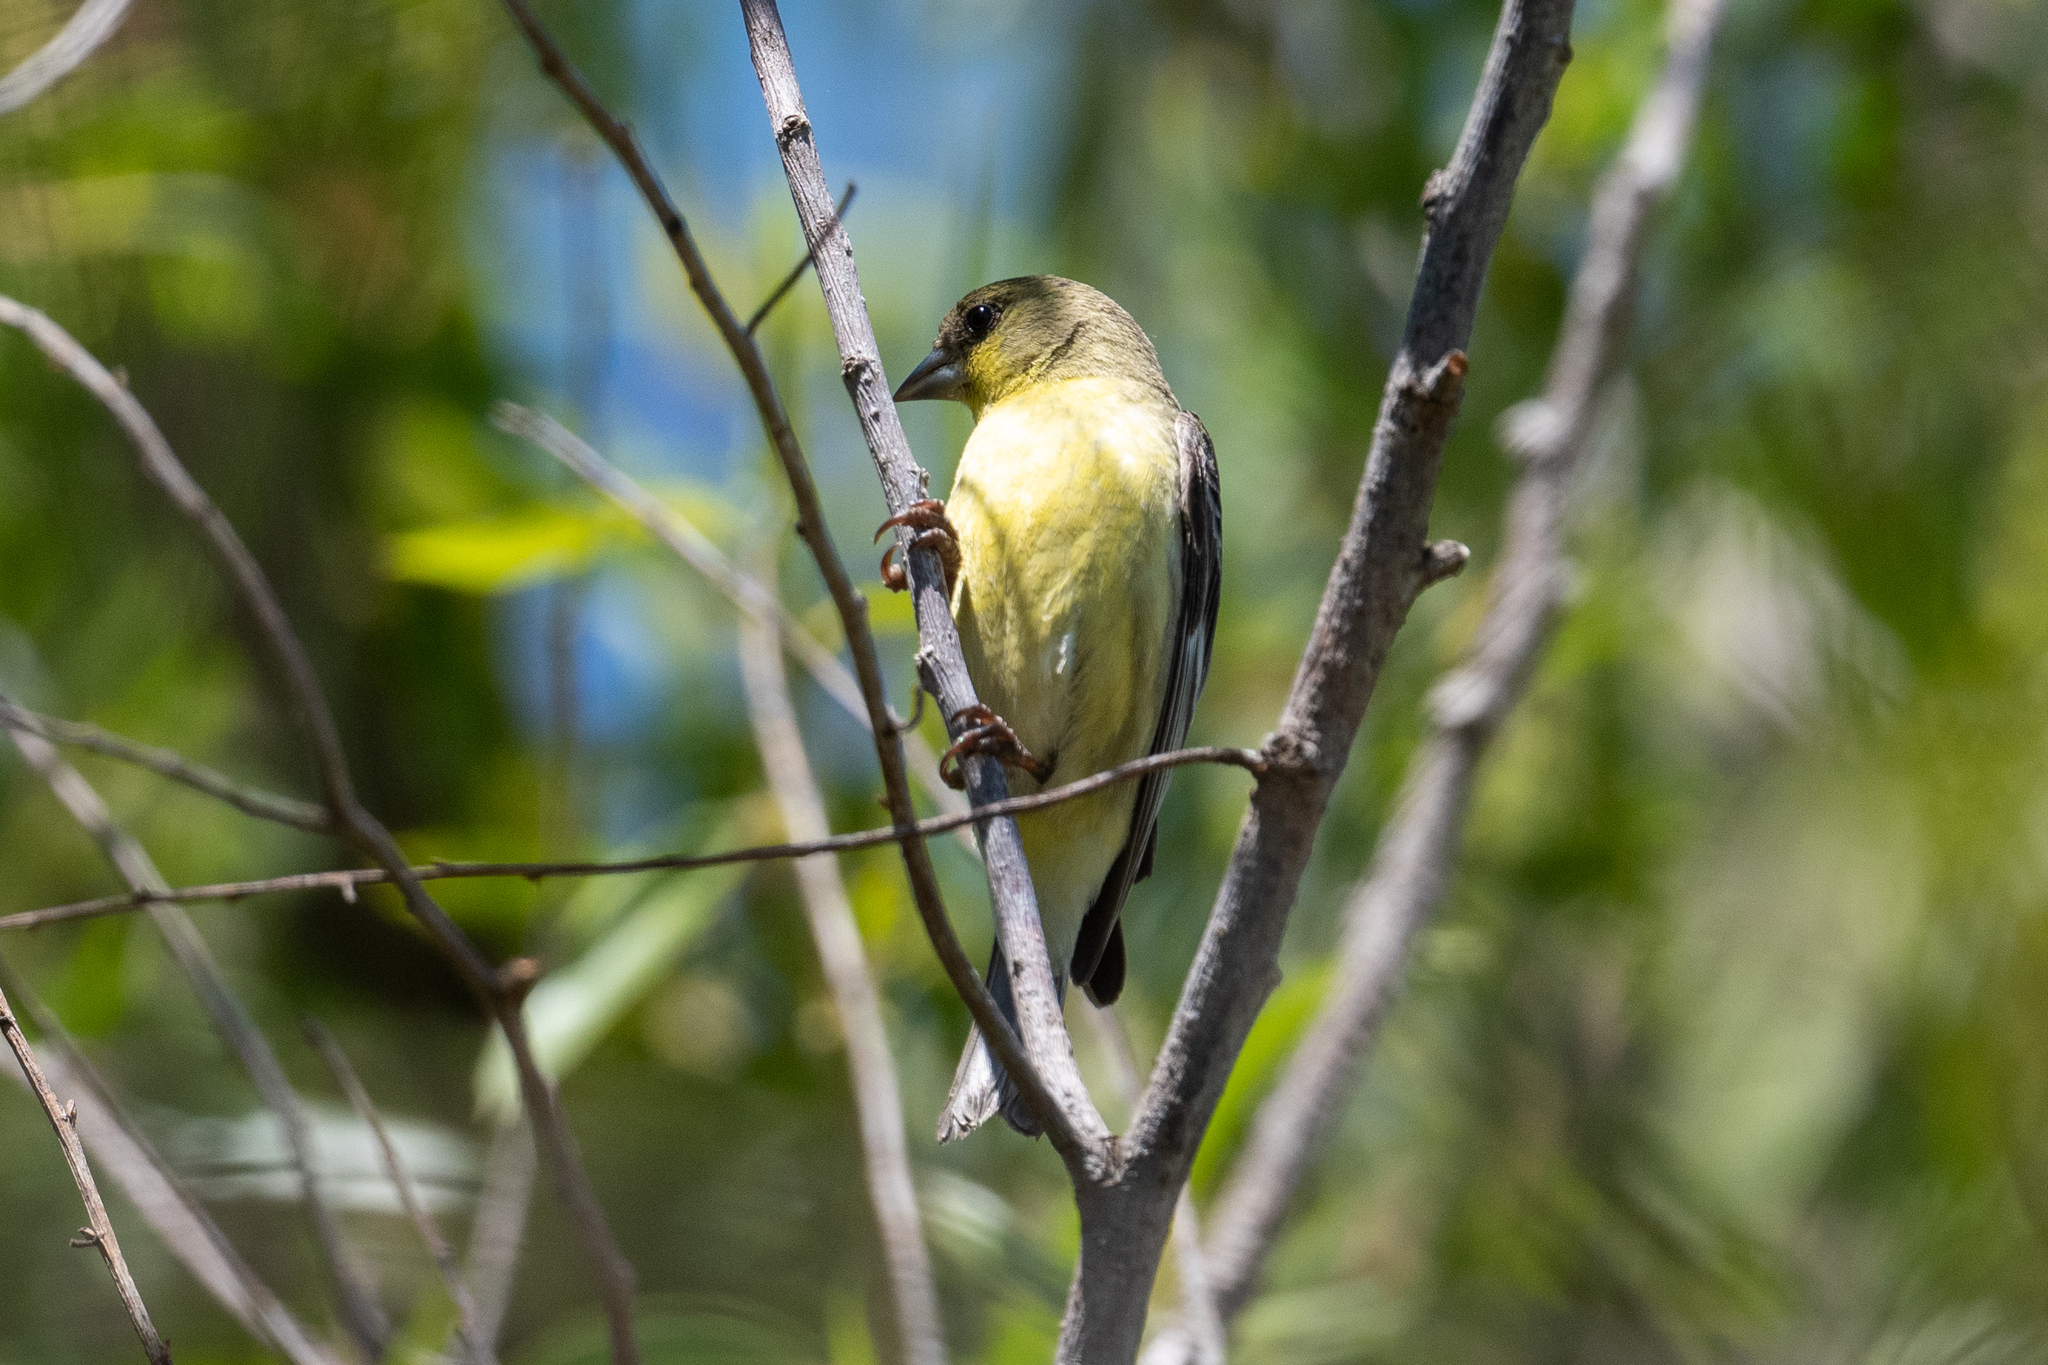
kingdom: Animalia
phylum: Chordata
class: Aves
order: Passeriformes
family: Fringillidae
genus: Spinus
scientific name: Spinus psaltria
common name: Lesser goldfinch
